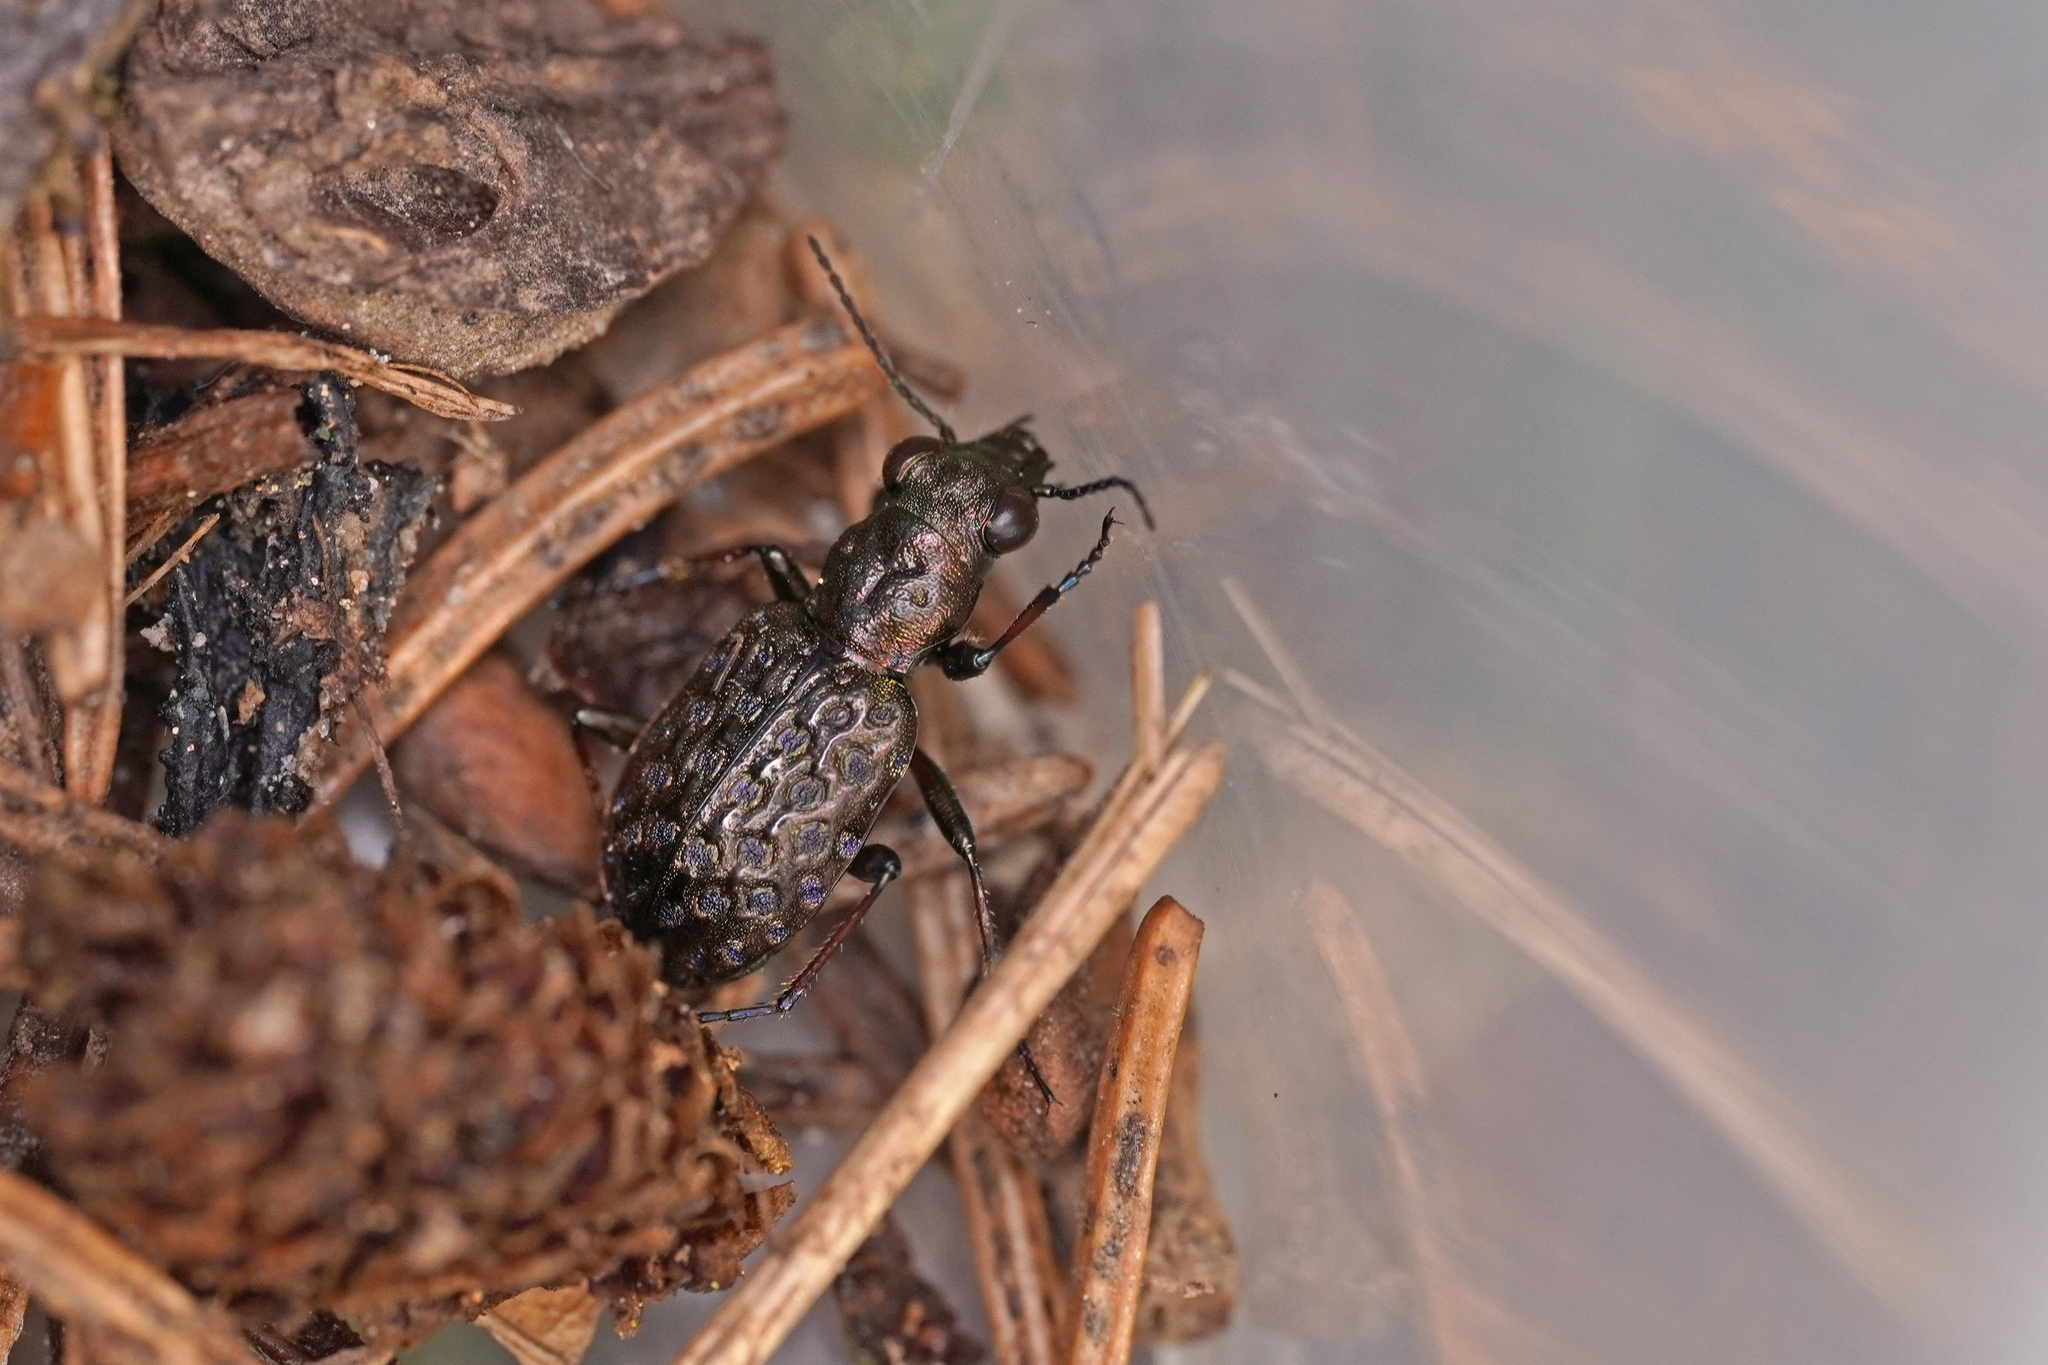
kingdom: Animalia
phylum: Arthropoda
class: Insecta
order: Coleoptera
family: Carabidae
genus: Elaphrus
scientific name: Elaphrus cupreus
